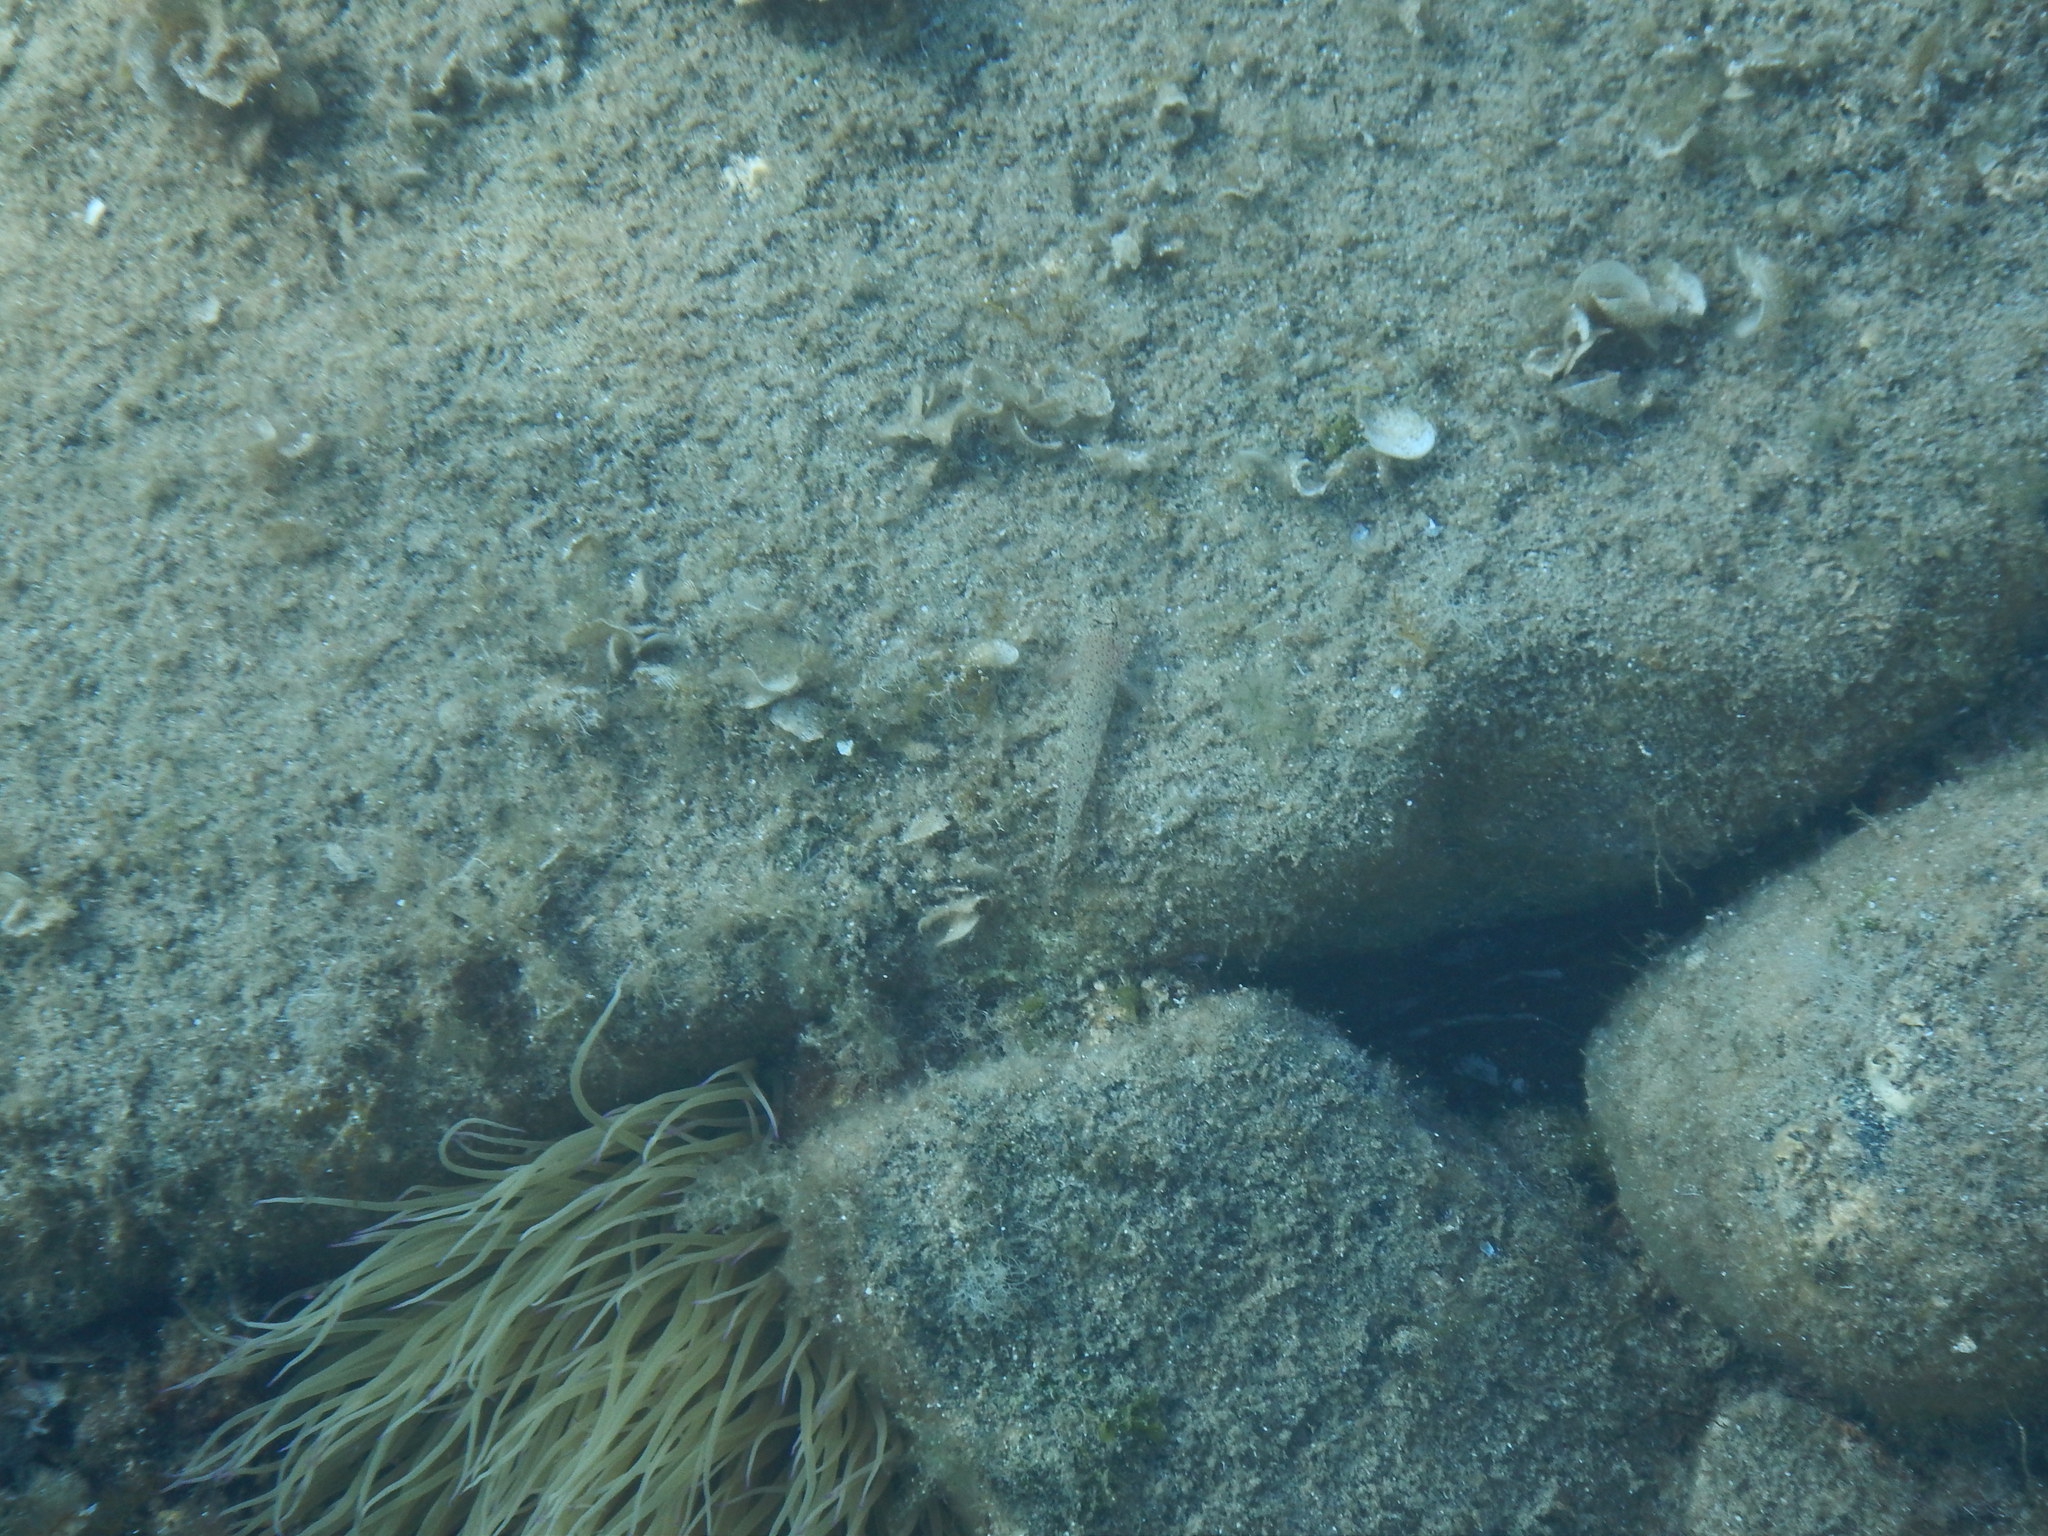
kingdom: Animalia
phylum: Chordata
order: Perciformes
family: Gobiidae
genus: Gobius
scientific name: Gobius incognitus
